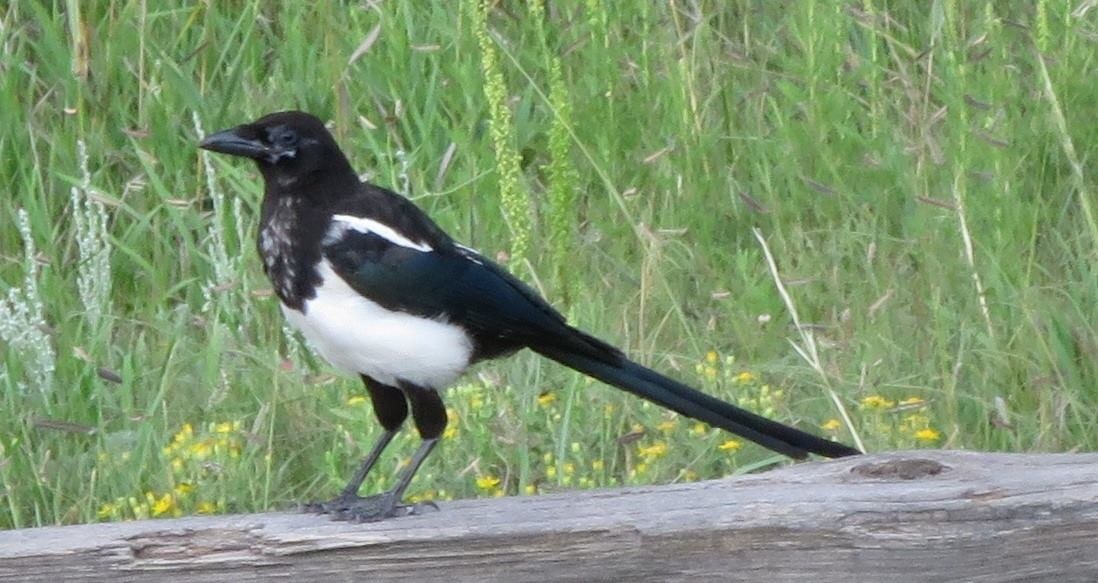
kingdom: Animalia
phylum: Chordata
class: Aves
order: Passeriformes
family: Corvidae
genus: Pica
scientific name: Pica hudsonia
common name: Black-billed magpie
